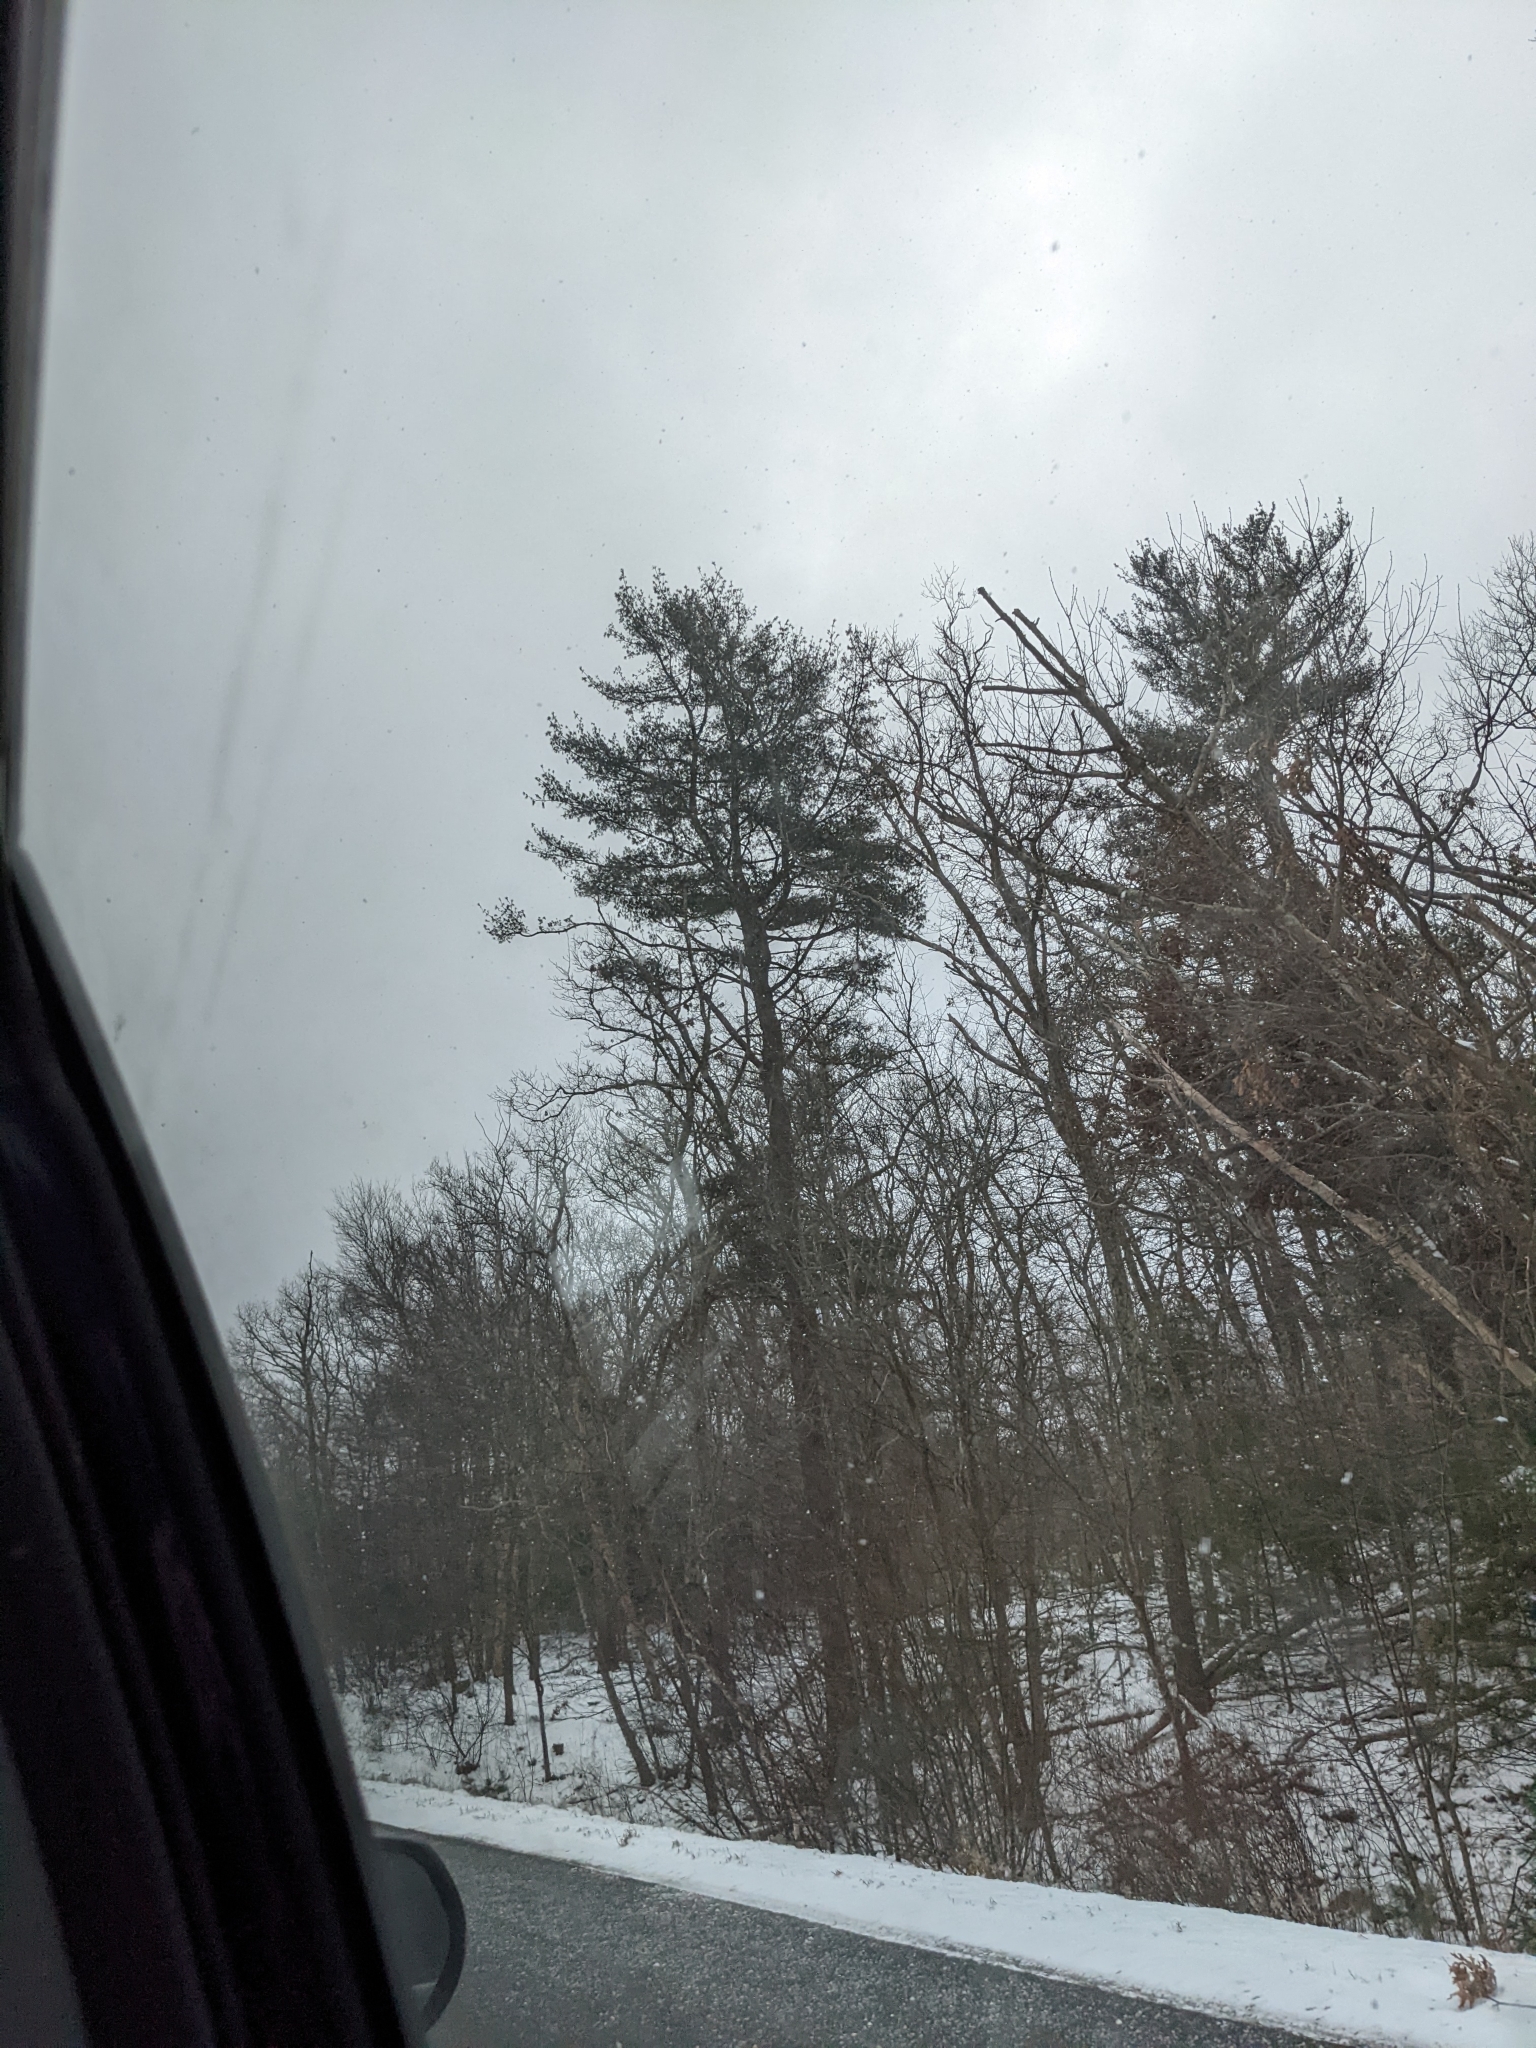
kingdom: Plantae
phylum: Tracheophyta
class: Pinopsida
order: Pinales
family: Pinaceae
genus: Pinus
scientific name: Pinus strobus
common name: Weymouth pine
